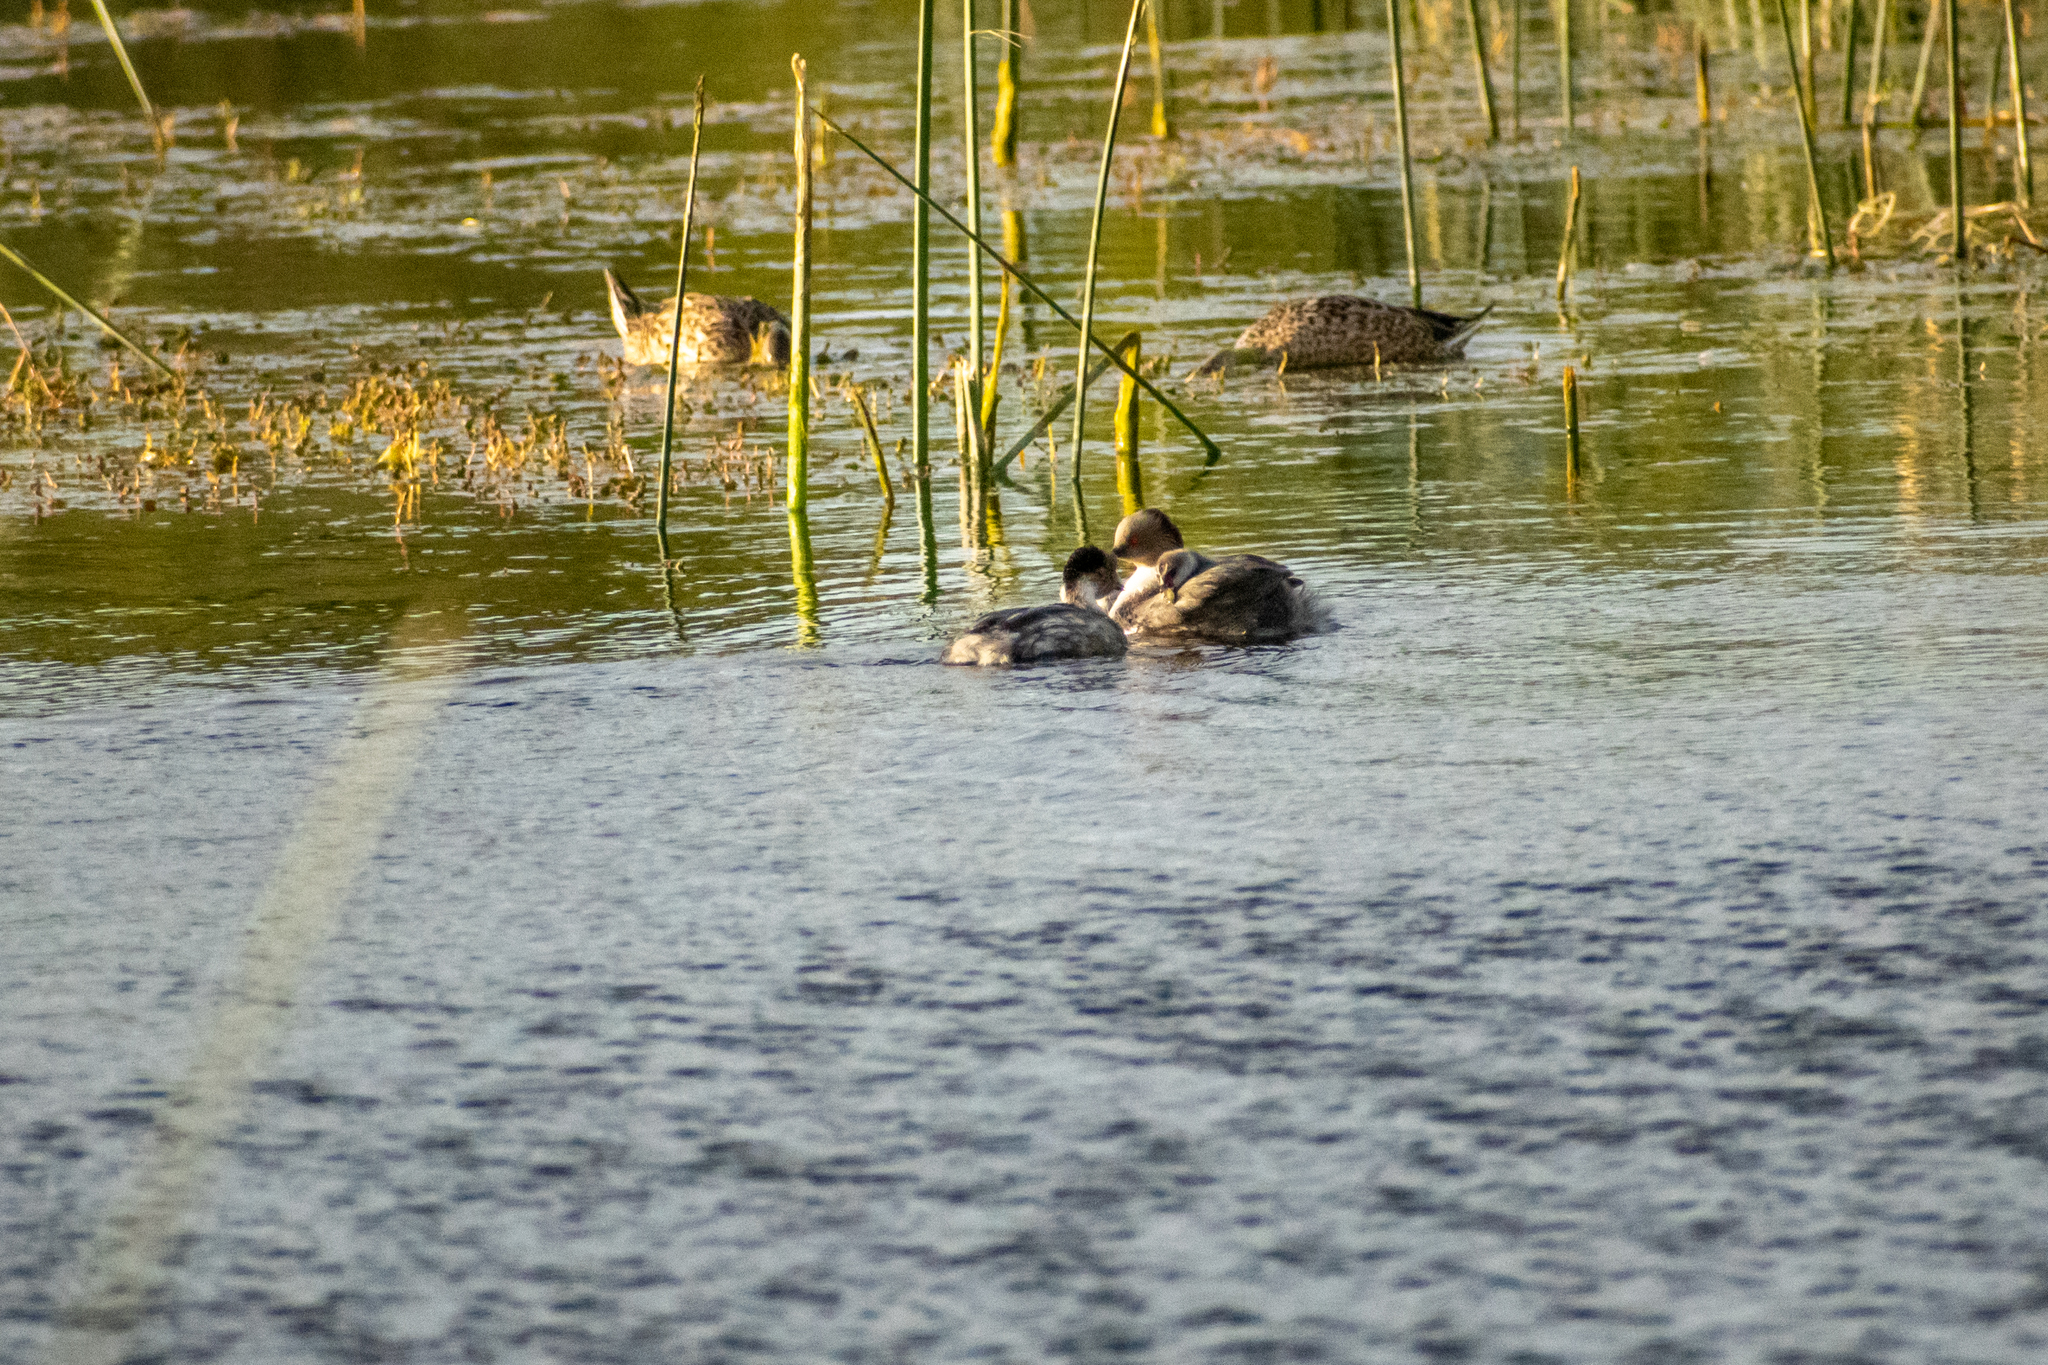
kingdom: Animalia
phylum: Chordata
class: Aves
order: Podicipediformes
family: Podicipedidae
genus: Podiceps
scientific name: Podiceps occipitalis
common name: Silvery grebe
